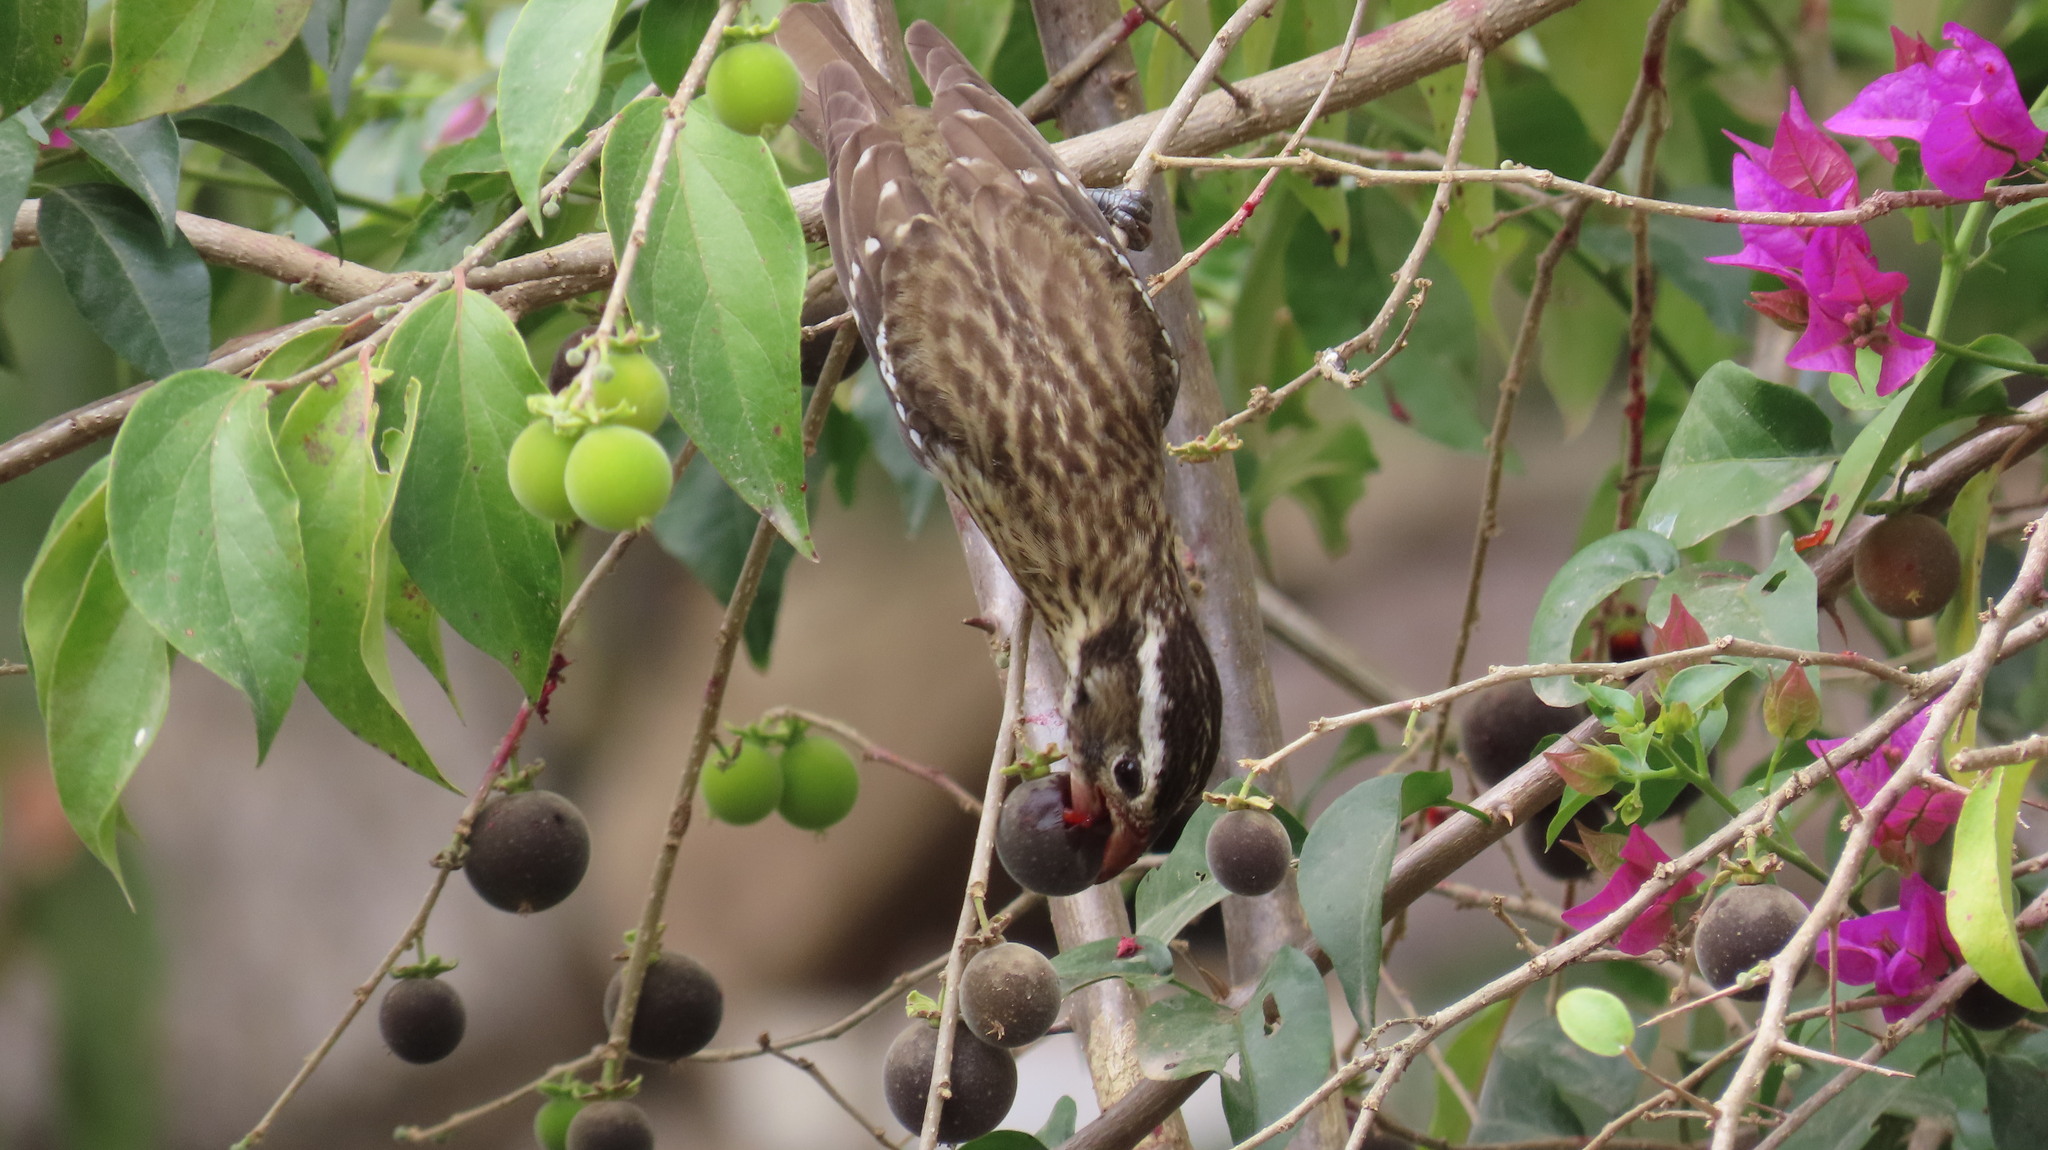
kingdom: Animalia
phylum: Chordata
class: Aves
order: Passeriformes
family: Cardinalidae
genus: Pheucticus
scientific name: Pheucticus ludovicianus
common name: Rose-breasted grosbeak
